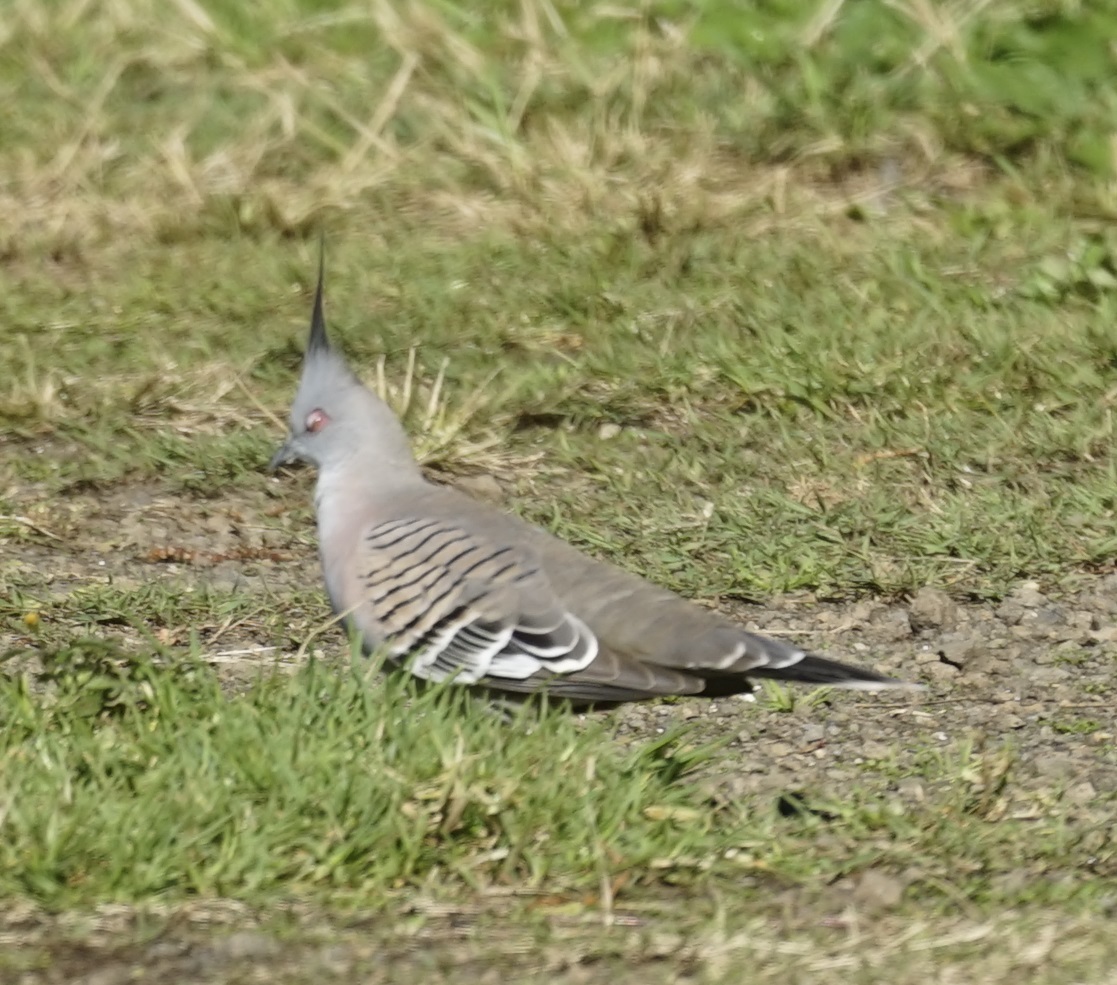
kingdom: Animalia
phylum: Chordata
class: Aves
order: Columbiformes
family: Columbidae
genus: Ocyphaps
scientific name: Ocyphaps lophotes
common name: Crested pigeon
